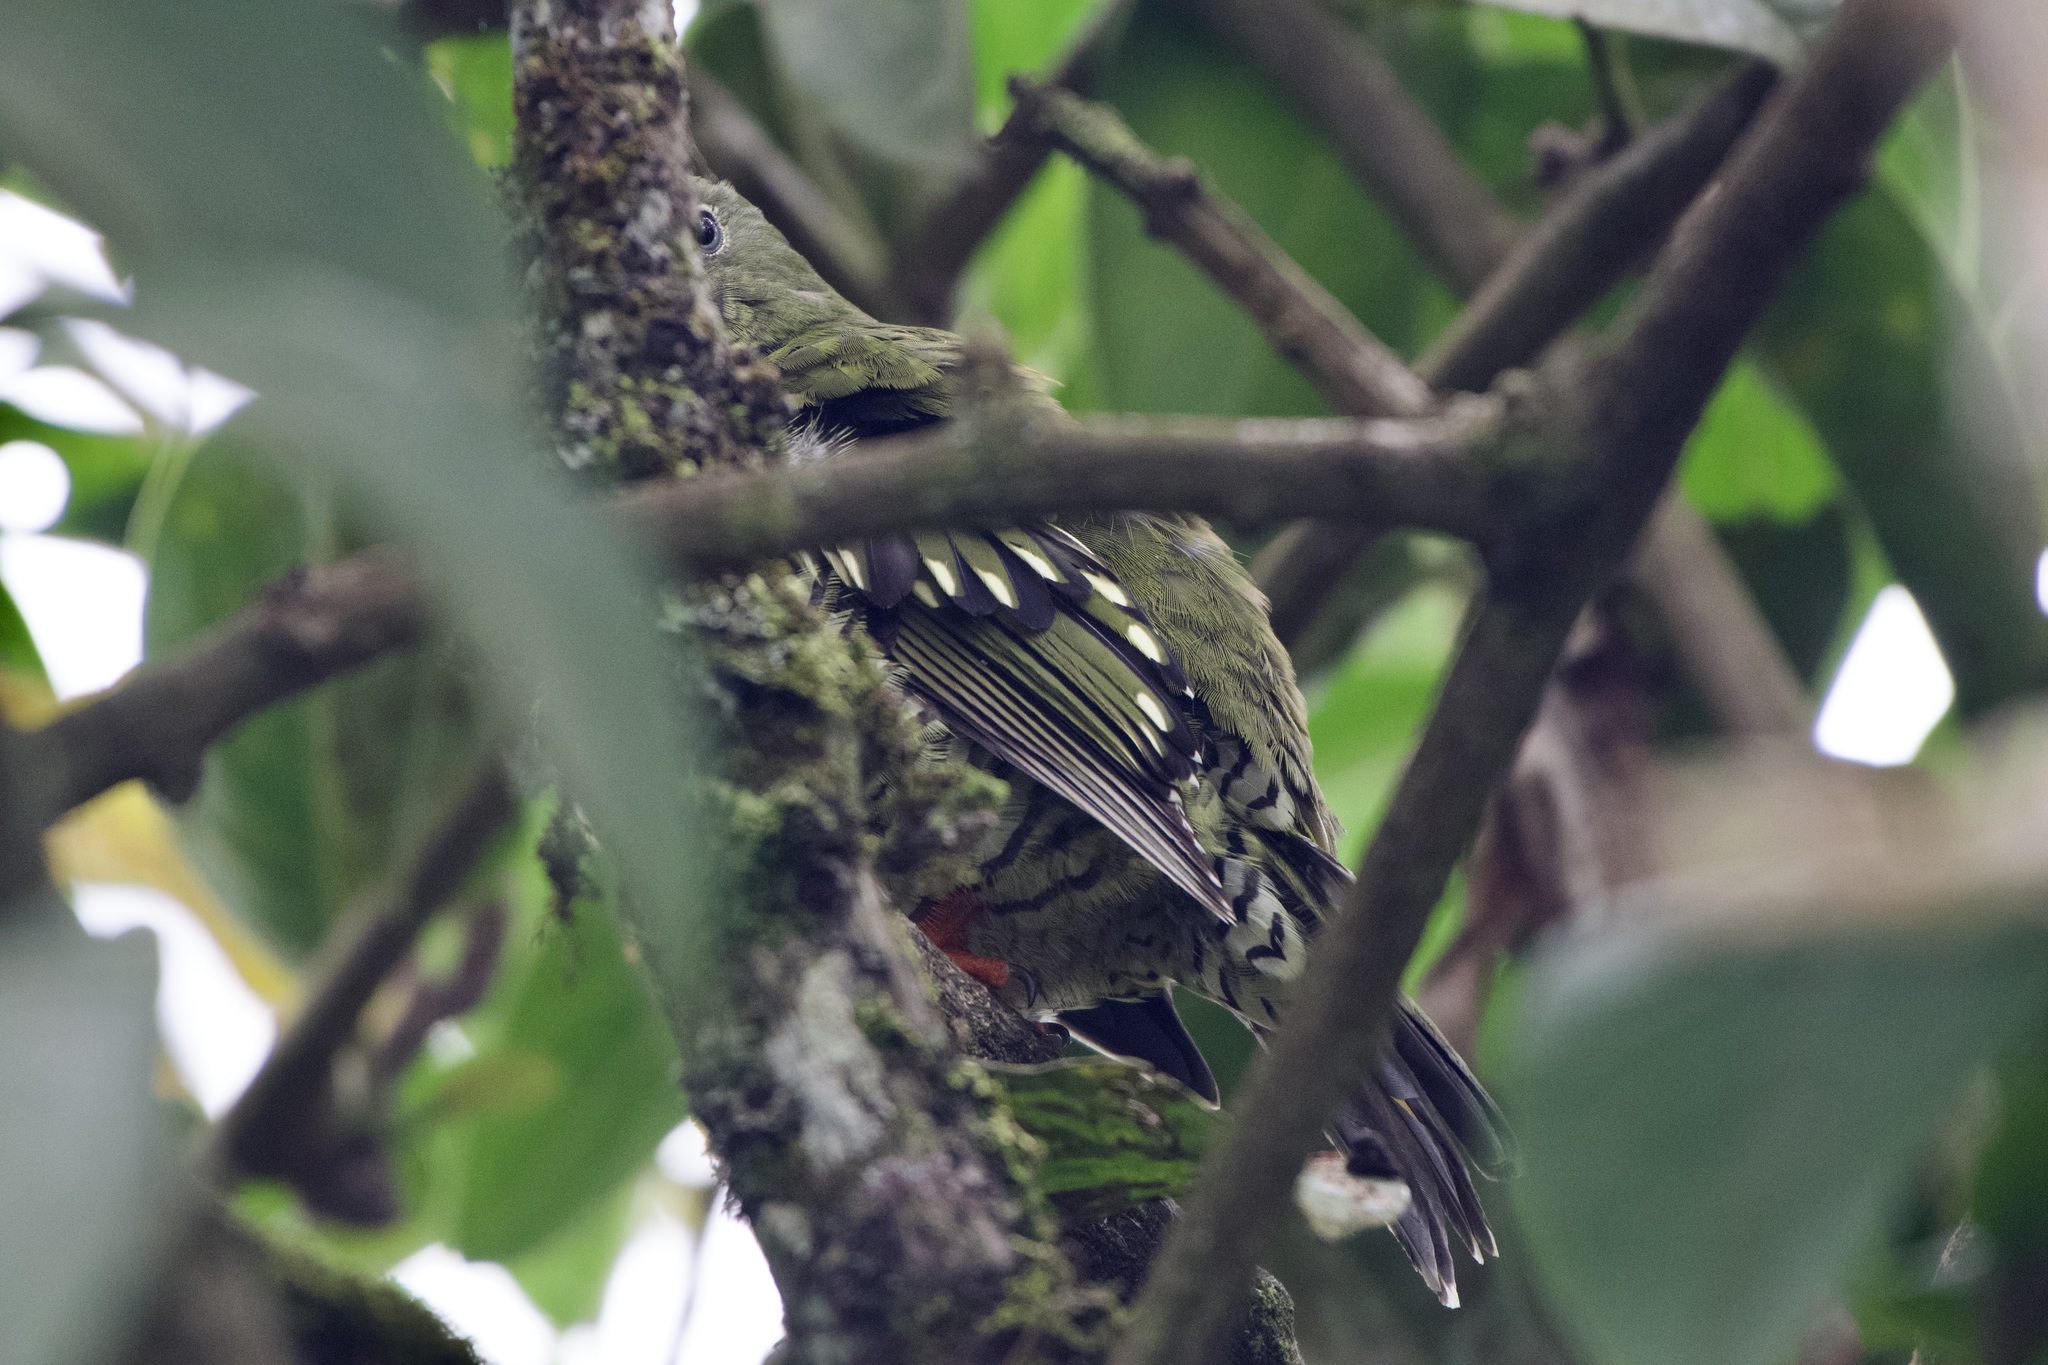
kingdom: Animalia
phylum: Chordata
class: Aves
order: Passeriformes
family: Cotingidae
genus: Pipreola
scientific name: Pipreola arcuata
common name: Barred fruiteater
